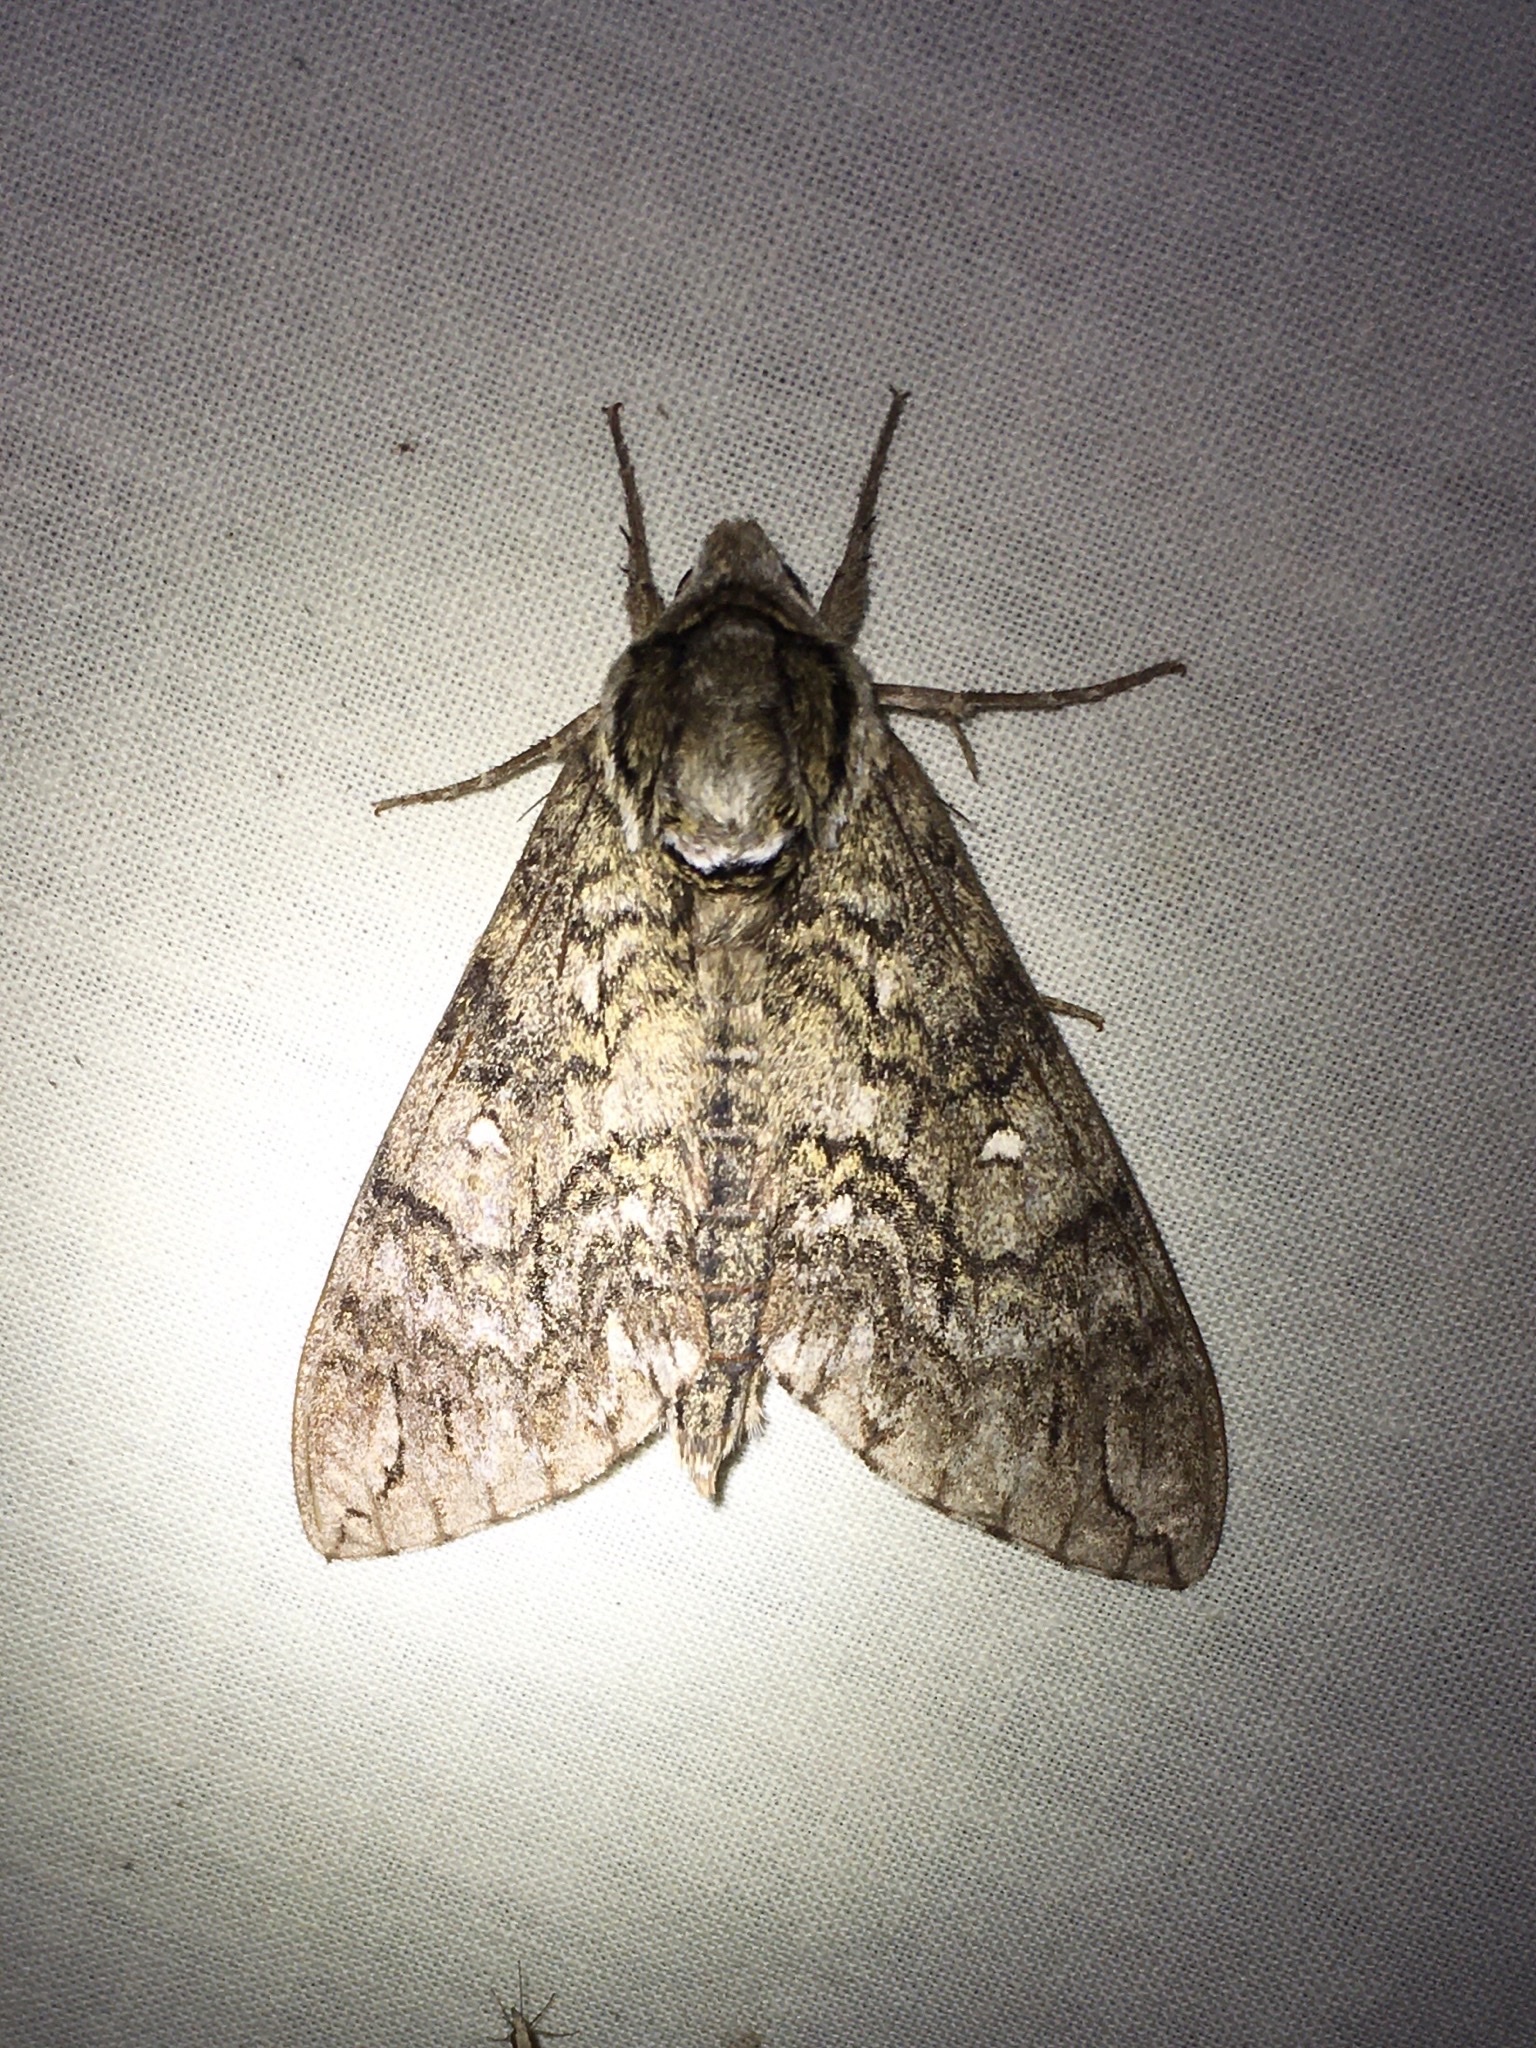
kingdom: Animalia
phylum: Arthropoda
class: Insecta
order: Lepidoptera
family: Sphingidae
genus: Ceratomia
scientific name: Ceratomia undulosa
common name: Waved sphinx
